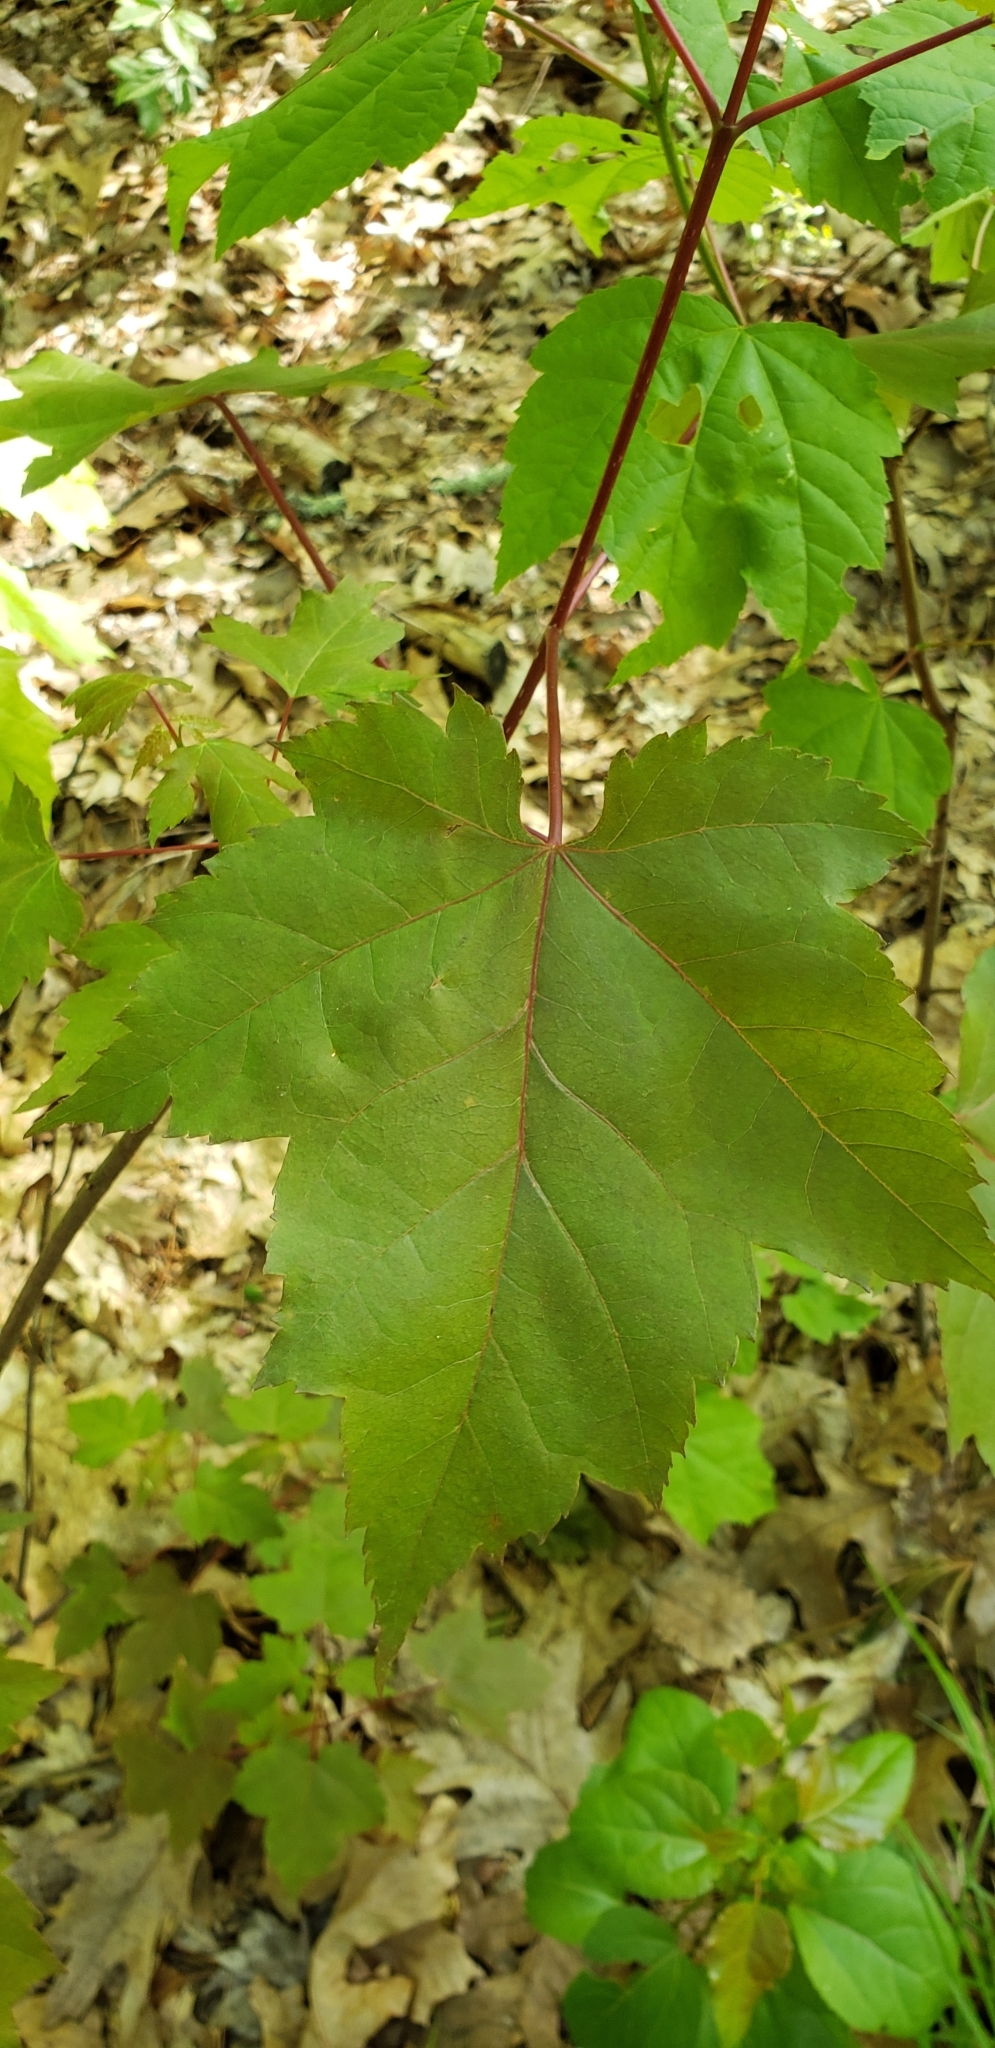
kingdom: Plantae
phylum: Tracheophyta
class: Magnoliopsida
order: Sapindales
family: Sapindaceae
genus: Acer
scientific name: Acer rubrum
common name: Red maple
